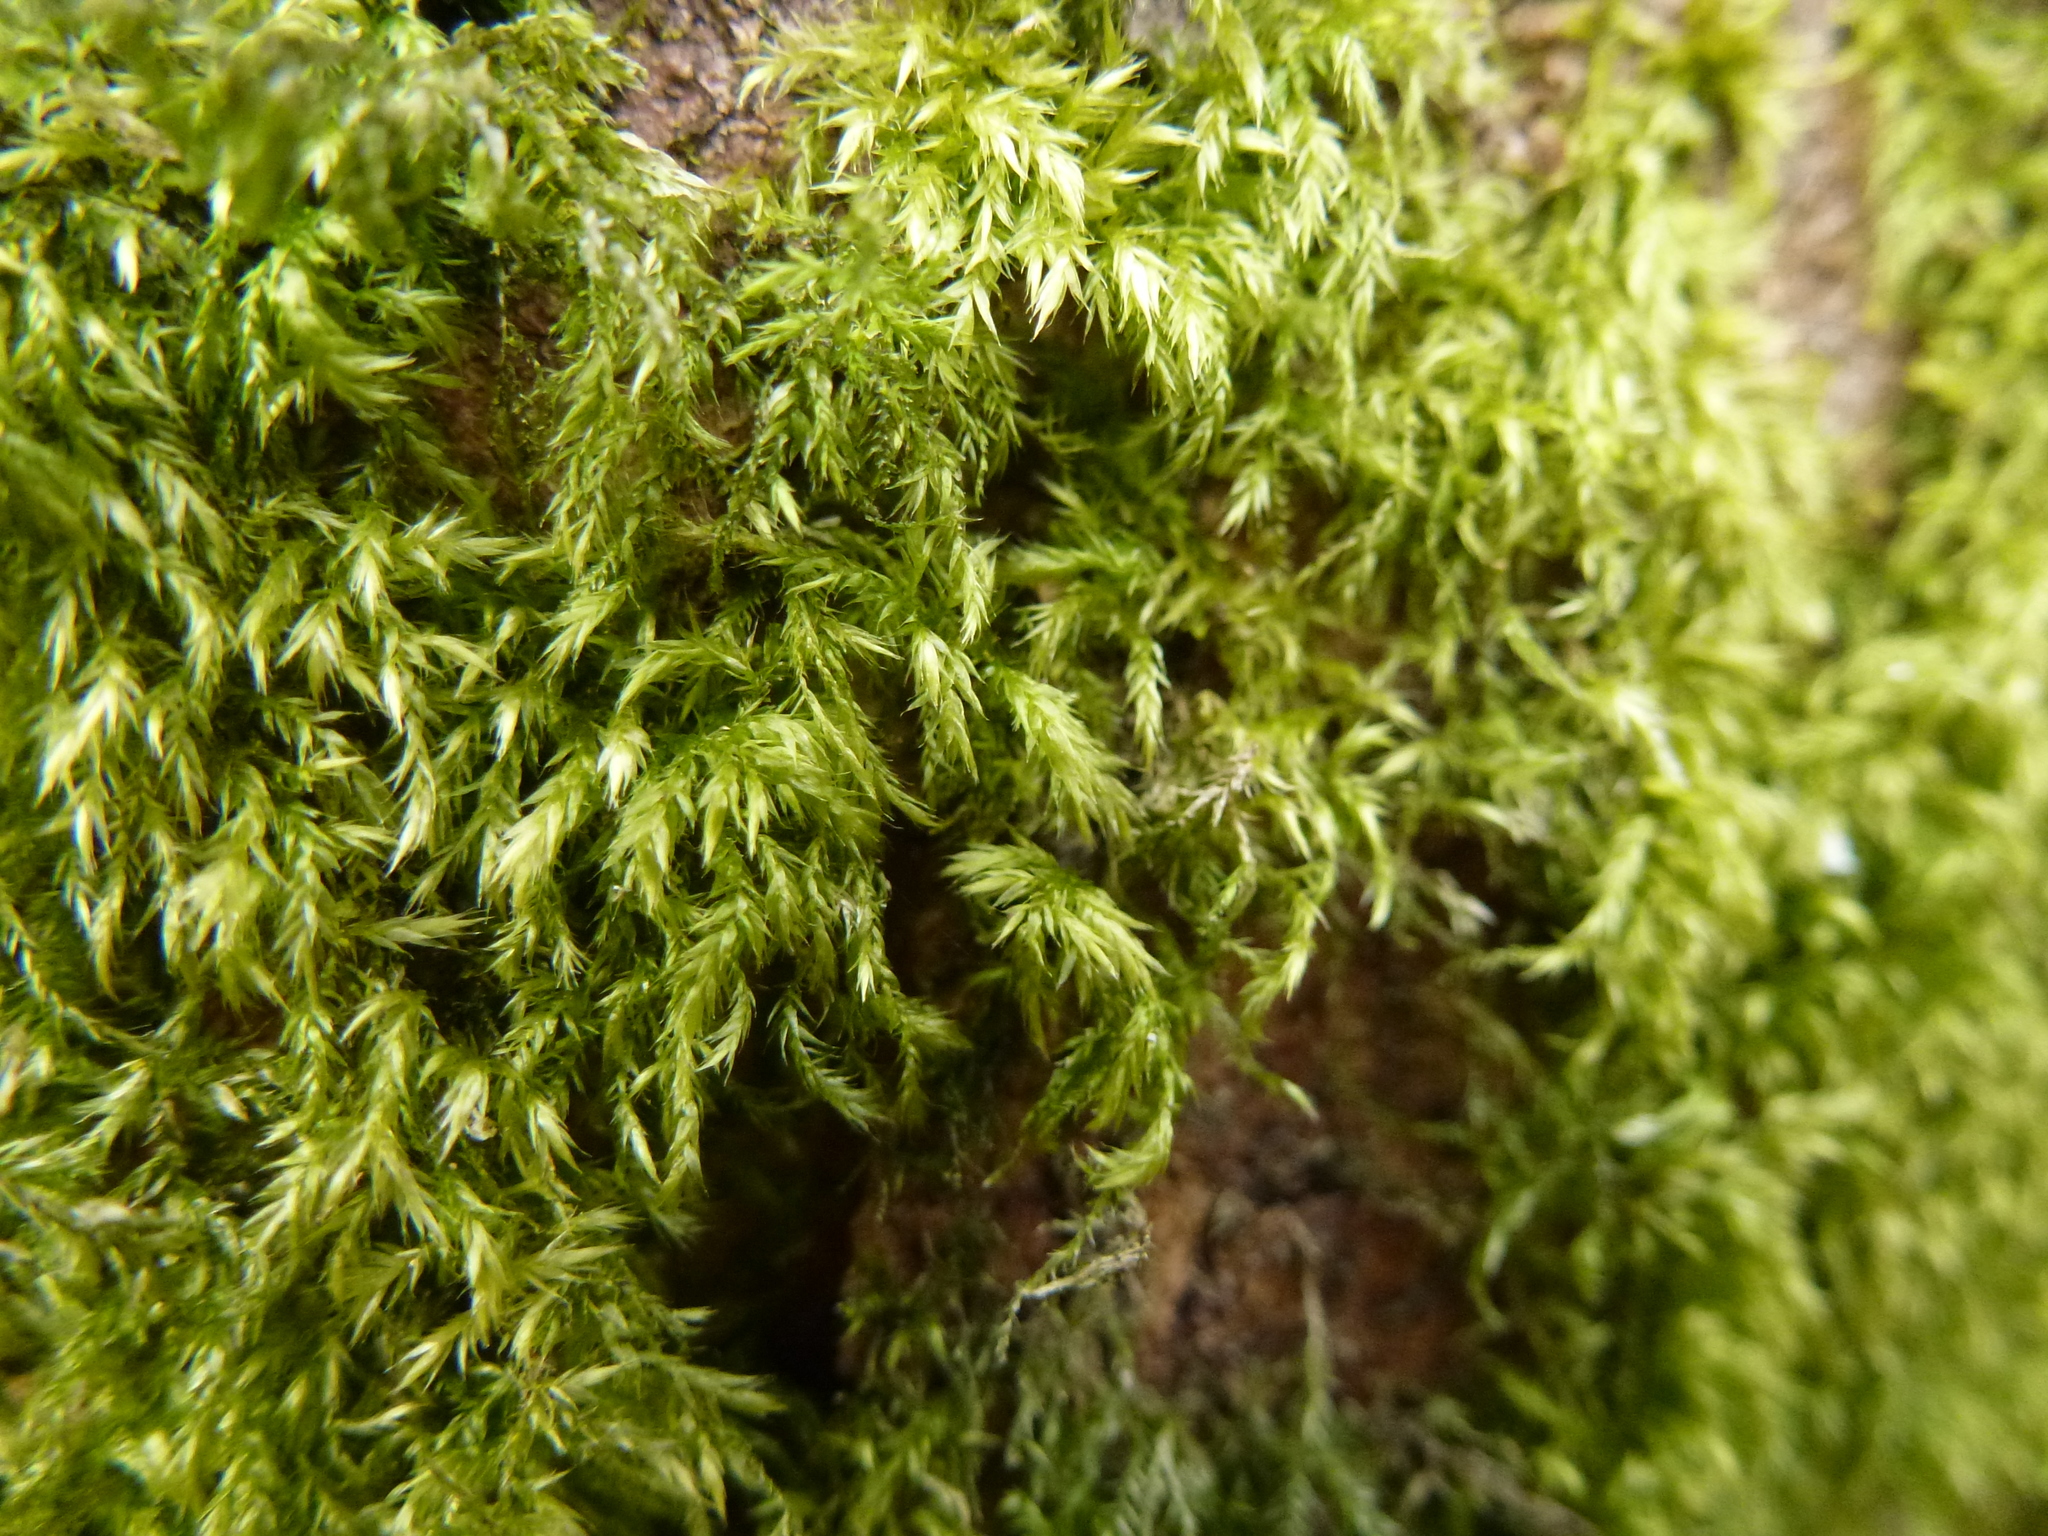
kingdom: Plantae
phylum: Bryophyta
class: Bryopsida
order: Hypnales
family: Lembophyllaceae
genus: Pseudisothecium
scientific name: Pseudisothecium myosuroides
